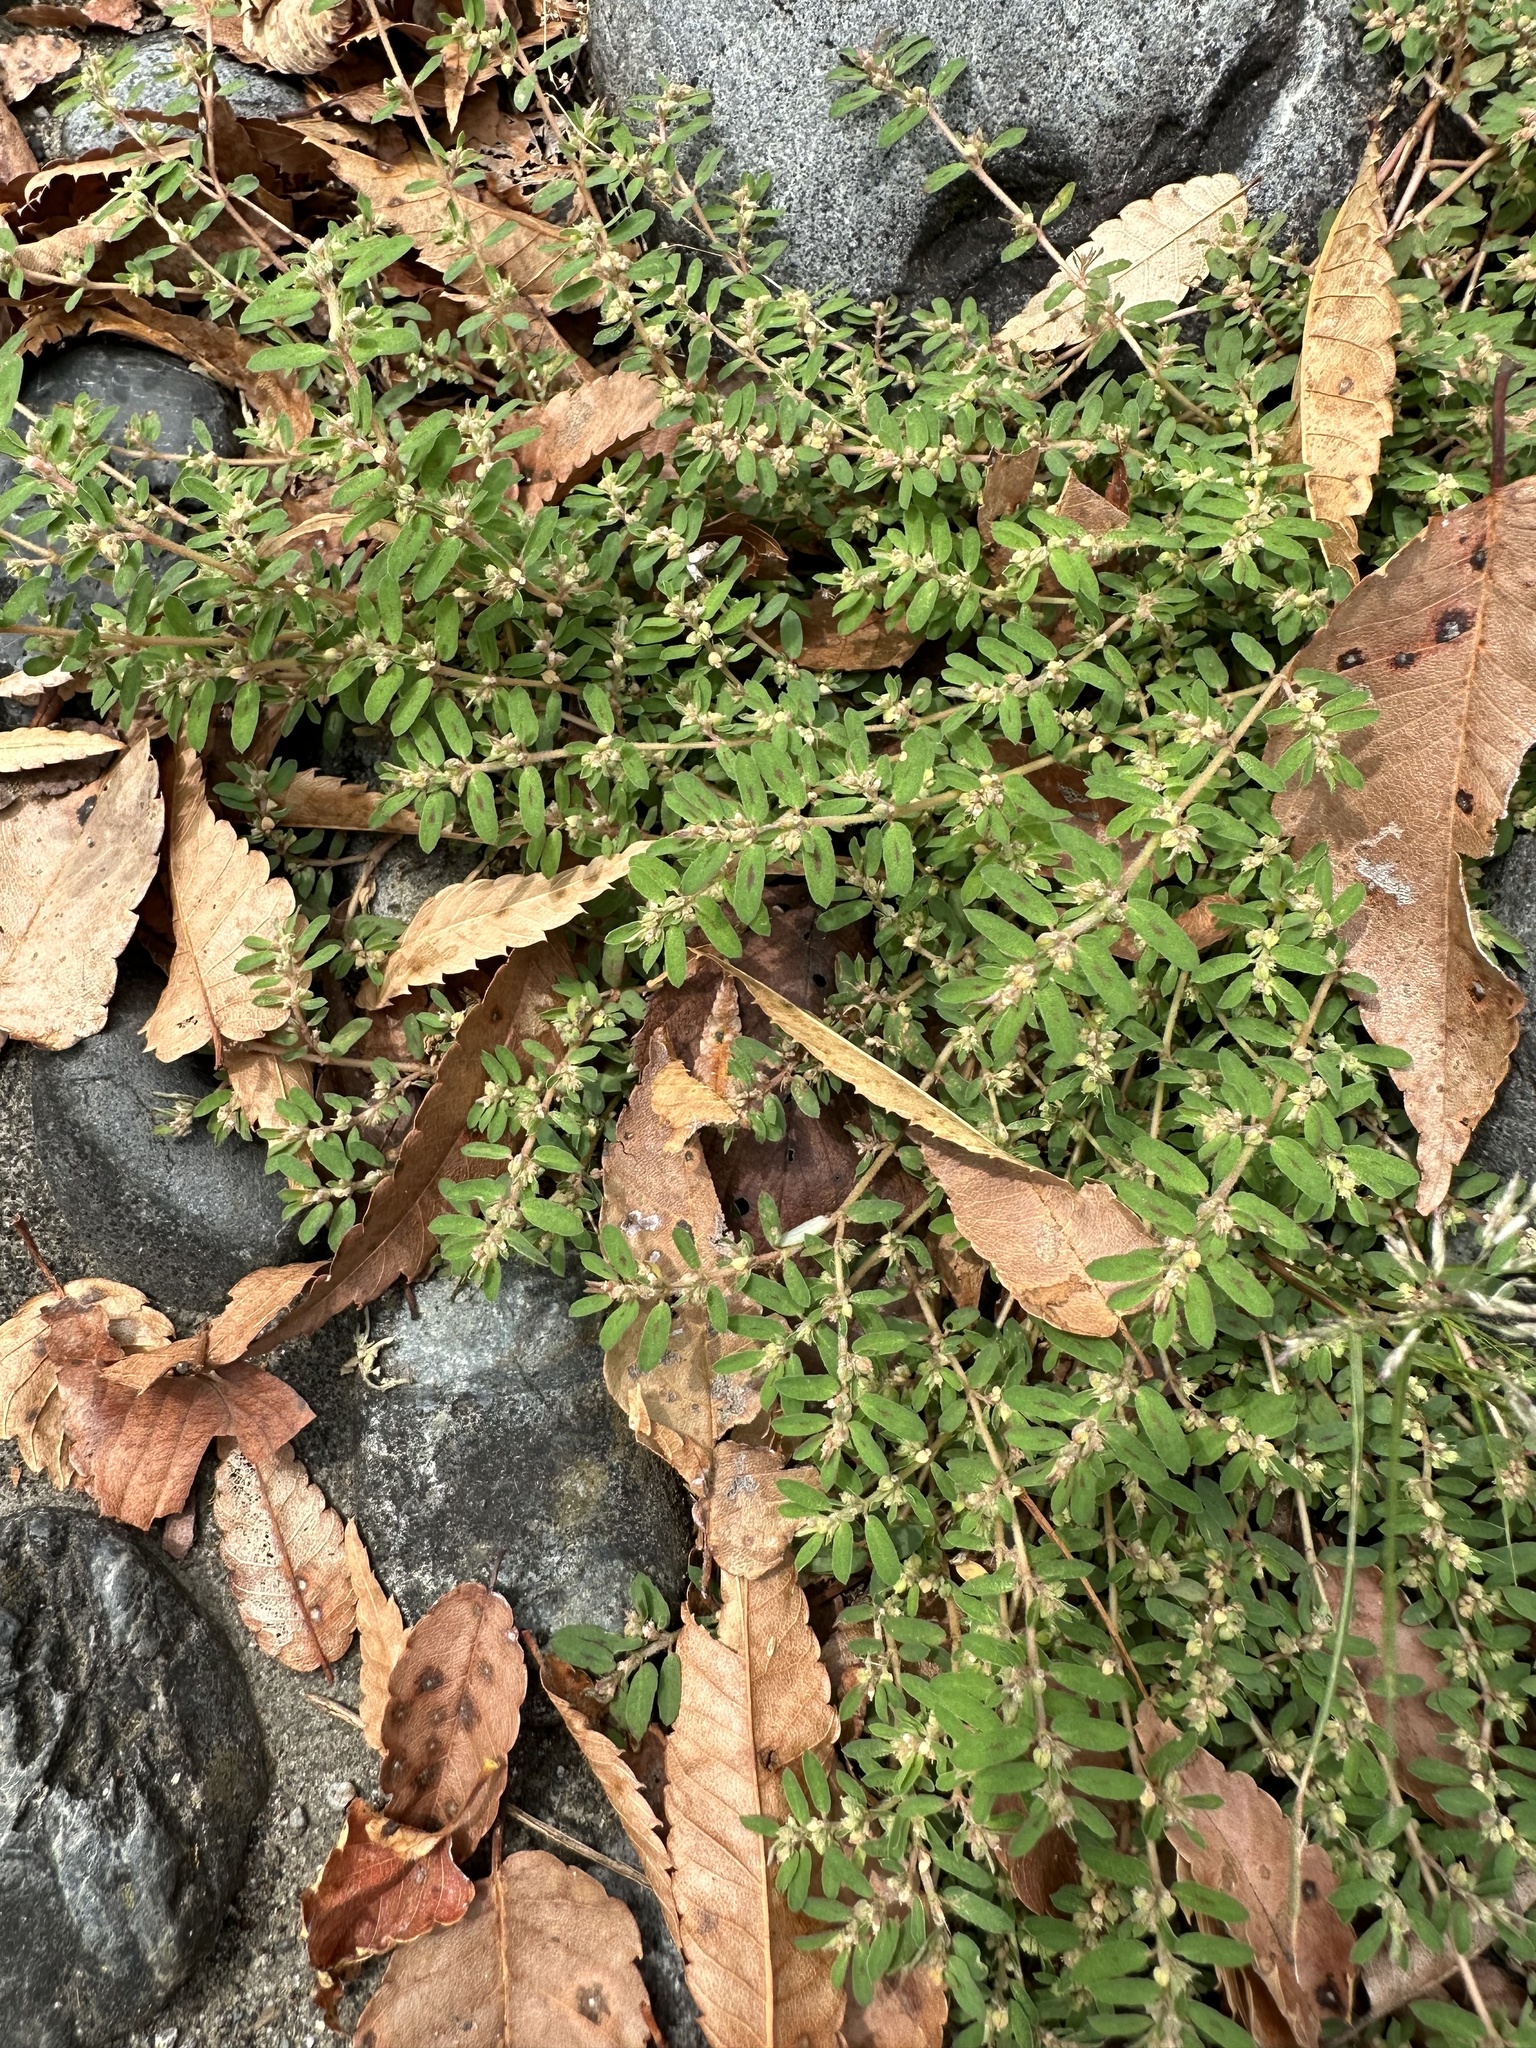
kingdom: Plantae
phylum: Tracheophyta
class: Magnoliopsida
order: Malpighiales
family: Euphorbiaceae
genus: Euphorbia
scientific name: Euphorbia maculata
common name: Spotted spurge
